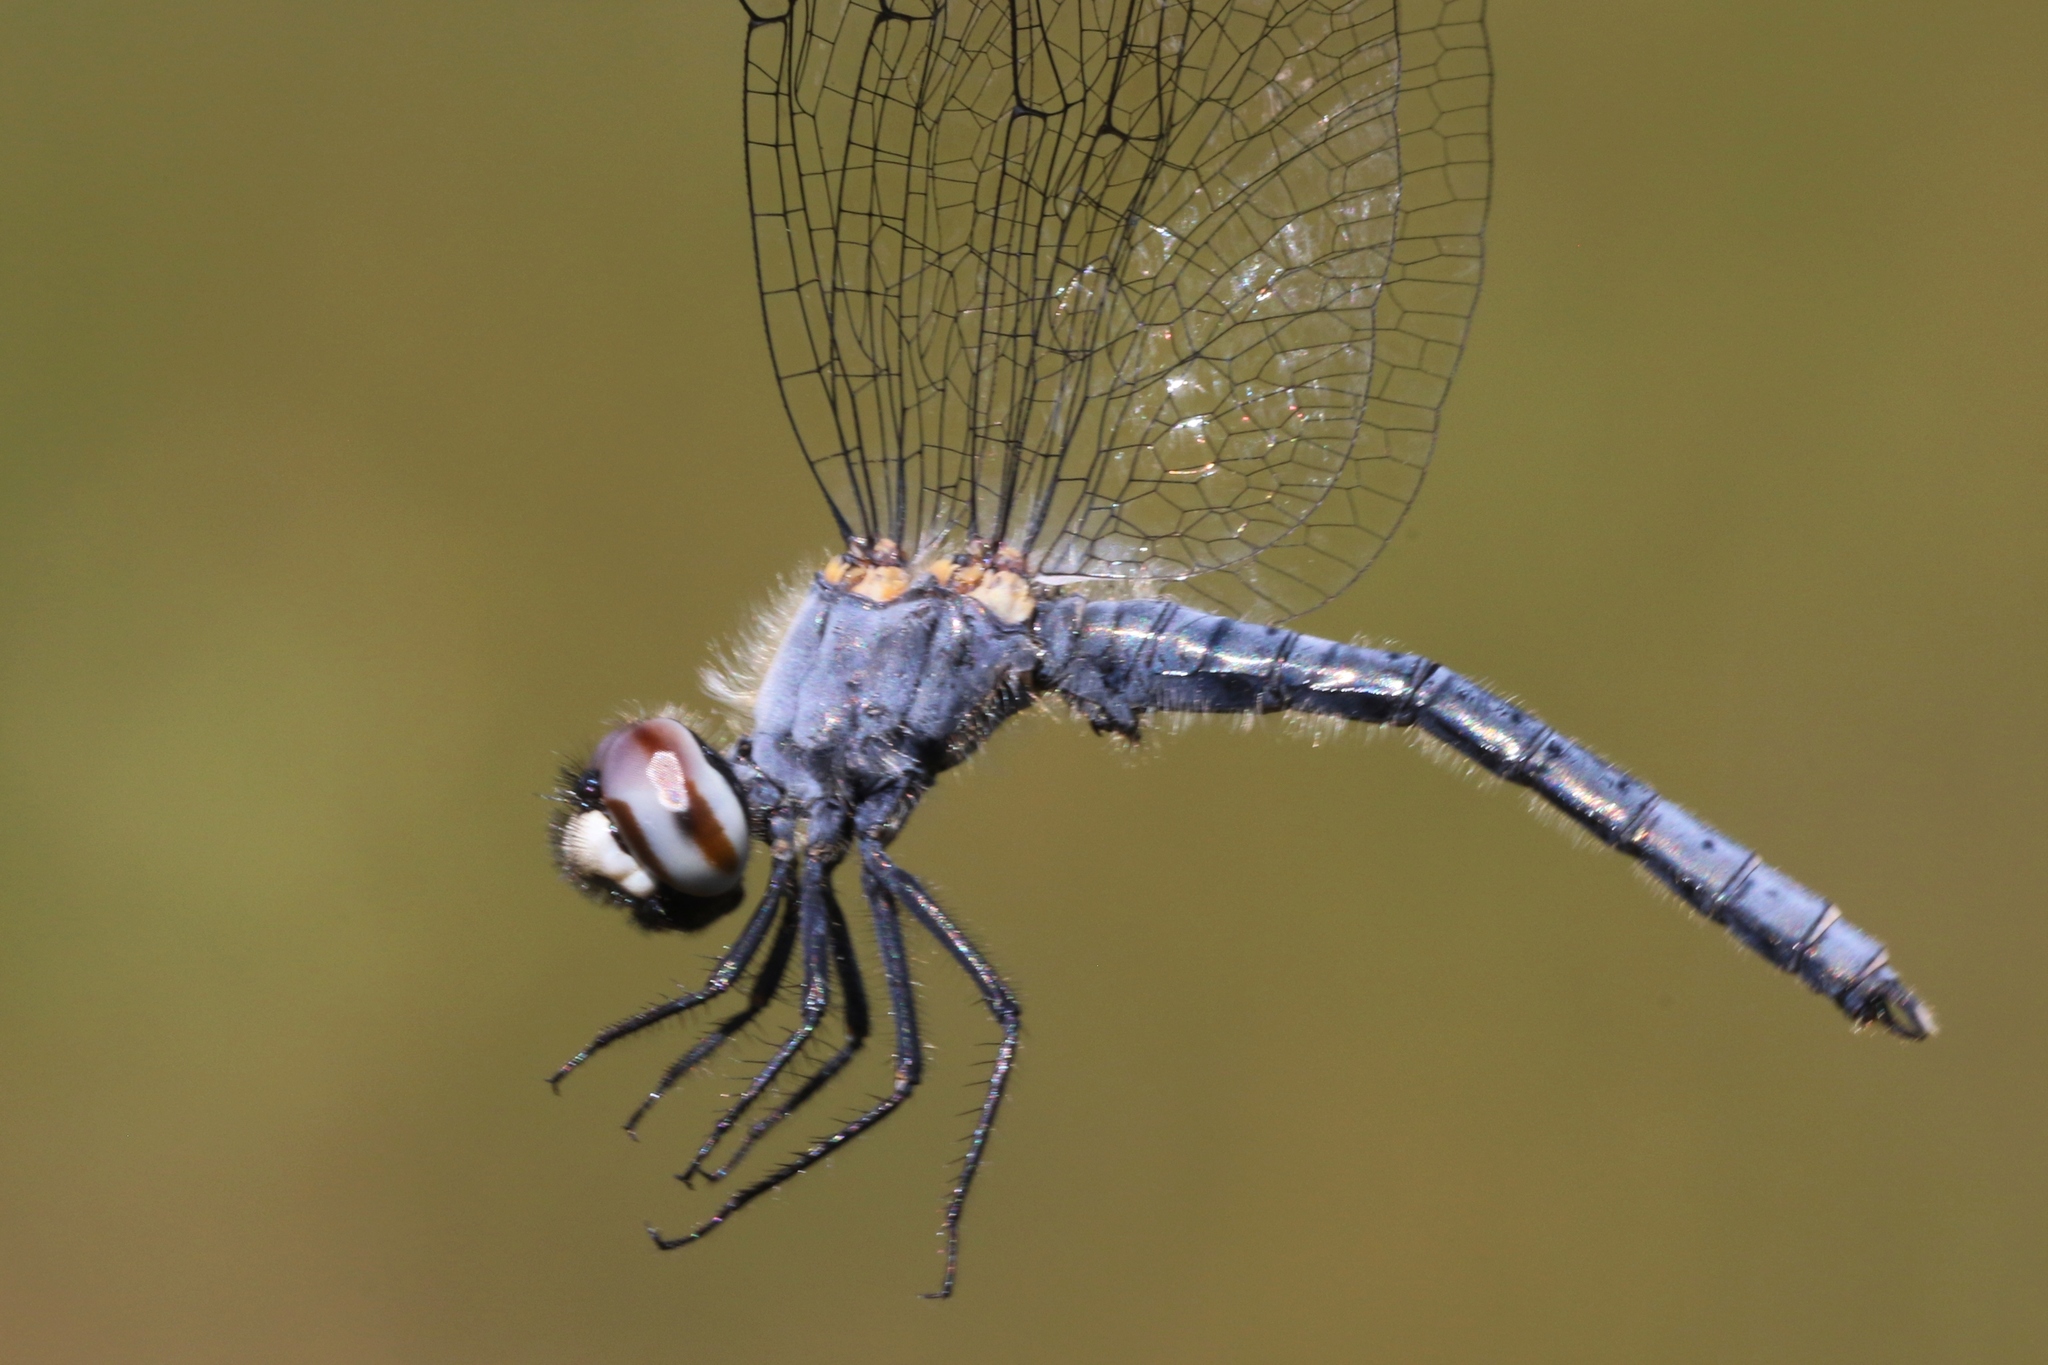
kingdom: Animalia
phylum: Arthropoda
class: Insecta
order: Odonata
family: Libellulidae
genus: Nannothemis
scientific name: Nannothemis bella
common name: Elfin skimmer
